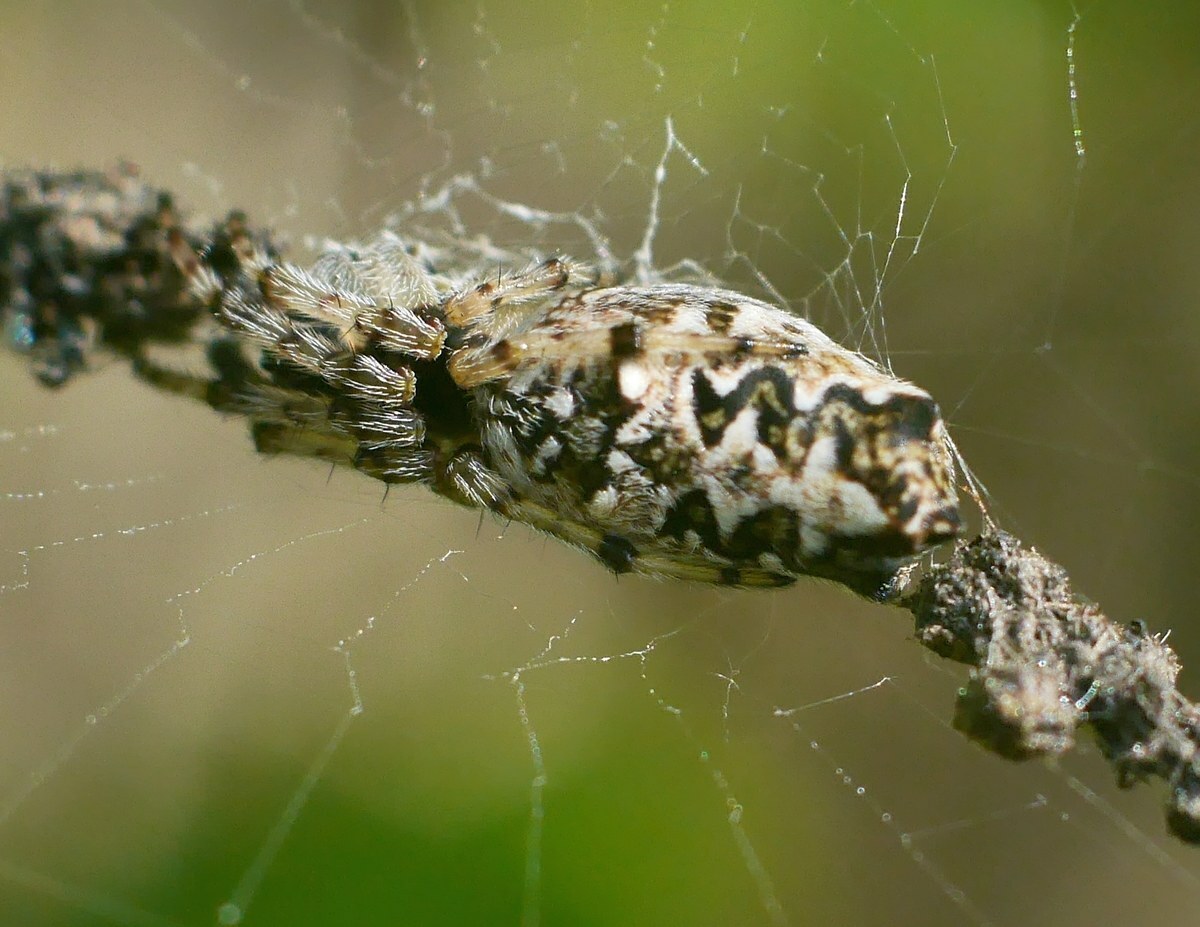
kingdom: Animalia
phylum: Arthropoda
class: Arachnida
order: Araneae
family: Araneidae
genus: Cyclosa
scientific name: Cyclosa oculata
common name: Trashline orbweaver
